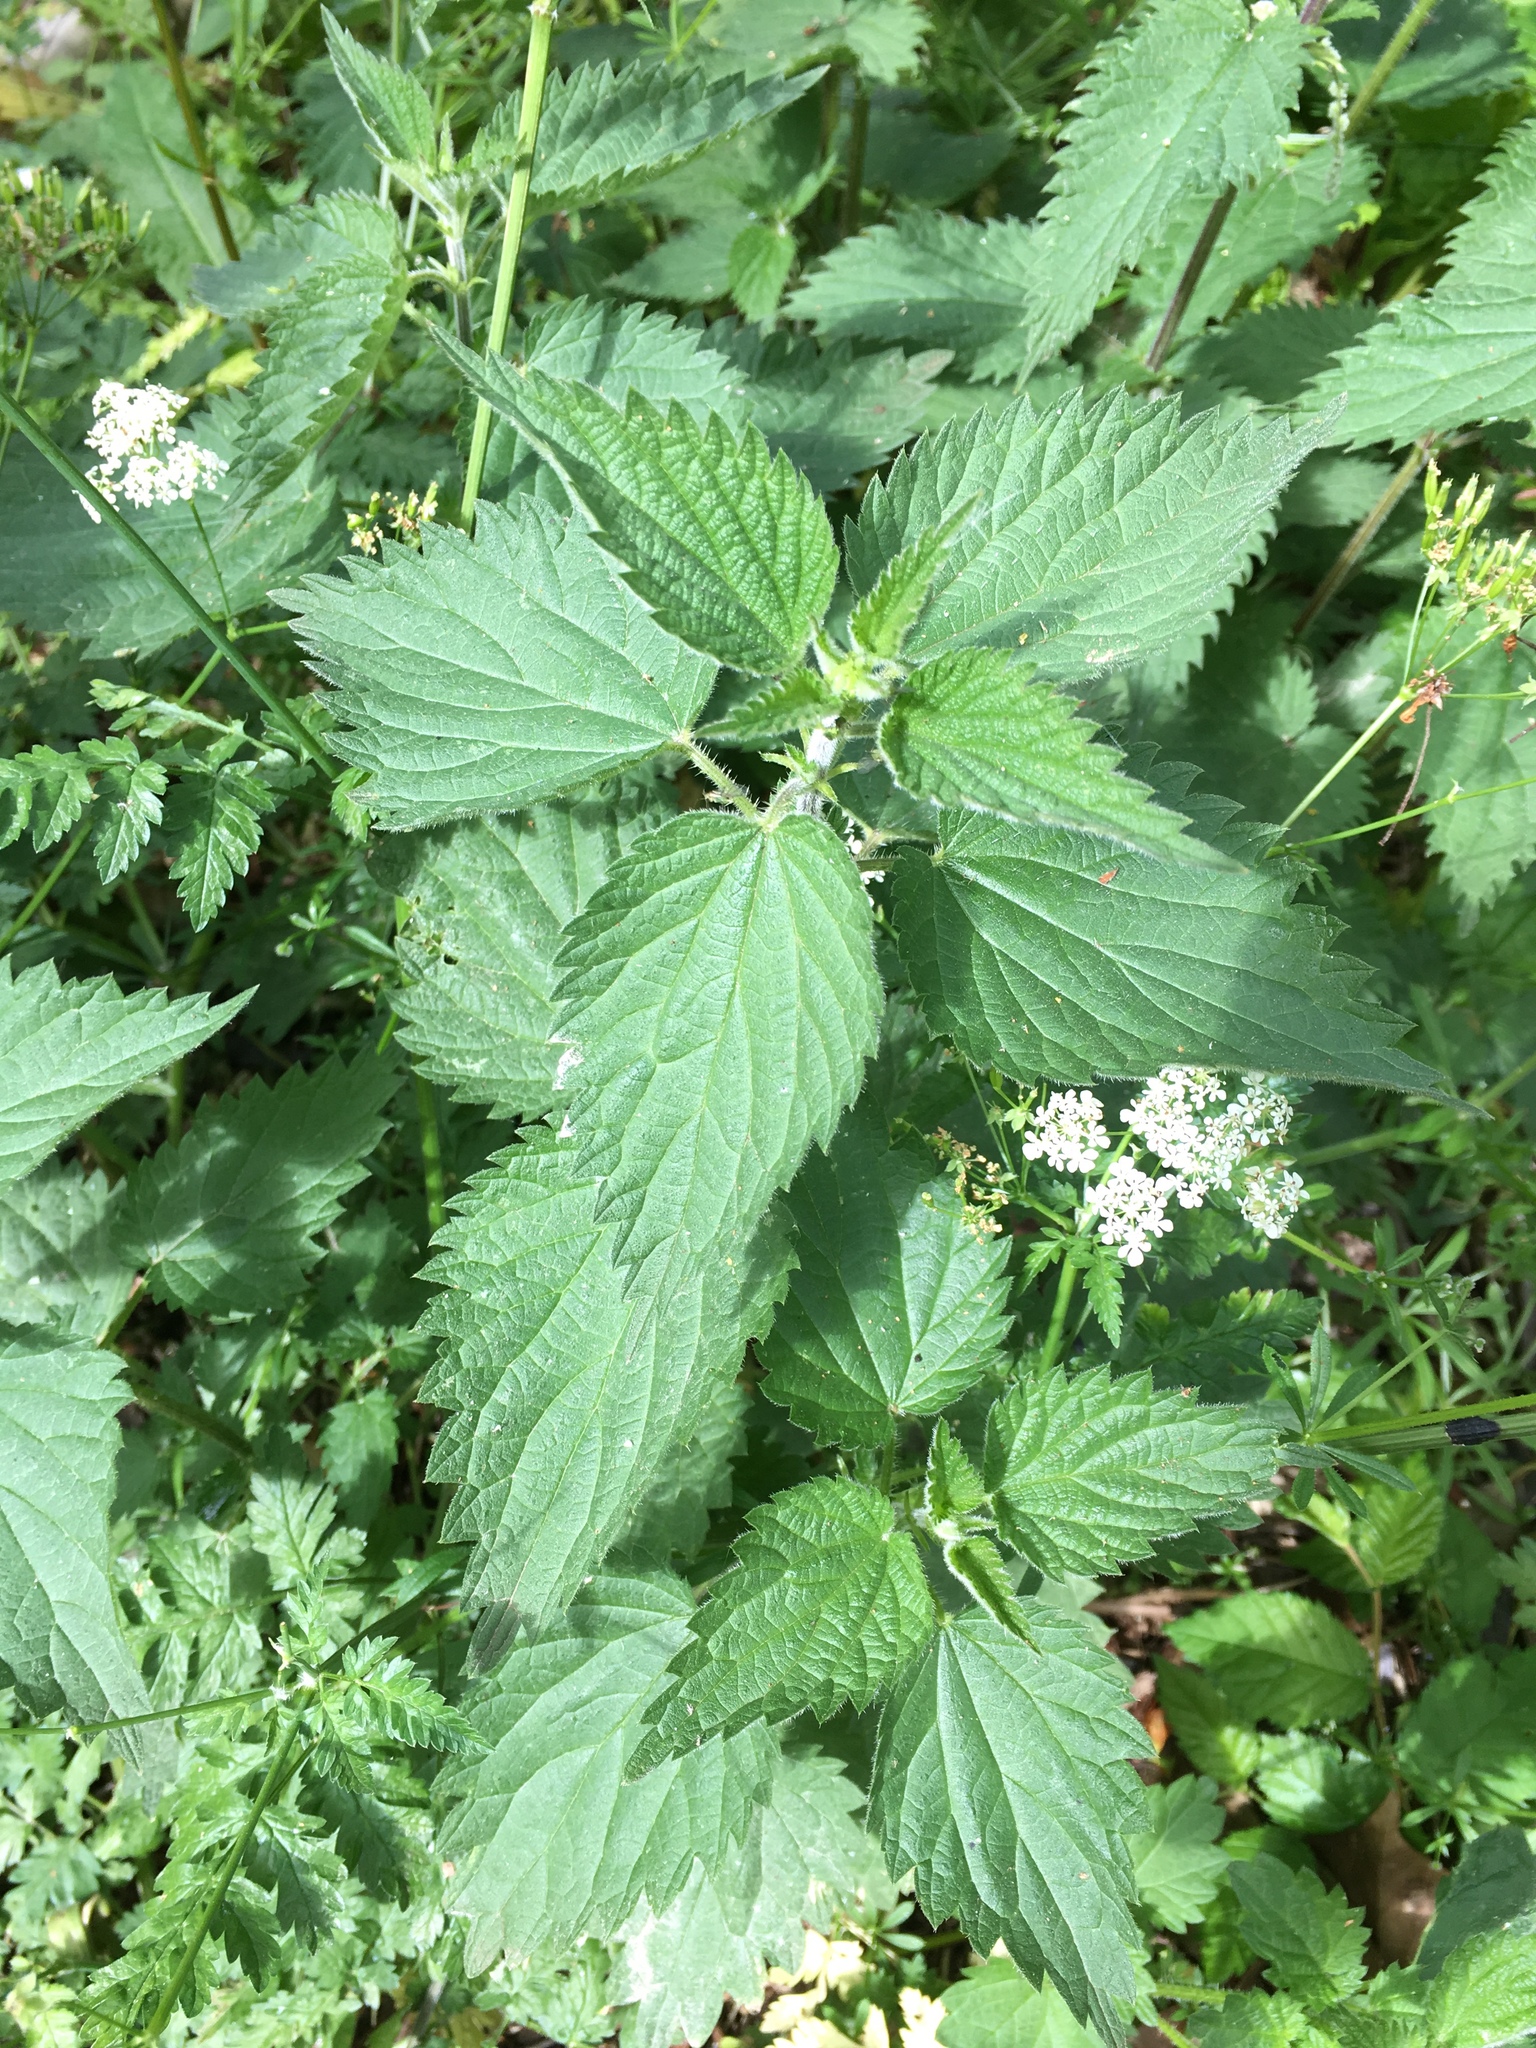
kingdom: Plantae
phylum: Tracheophyta
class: Magnoliopsida
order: Rosales
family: Urticaceae
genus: Urtica
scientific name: Urtica dioica
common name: Common nettle
